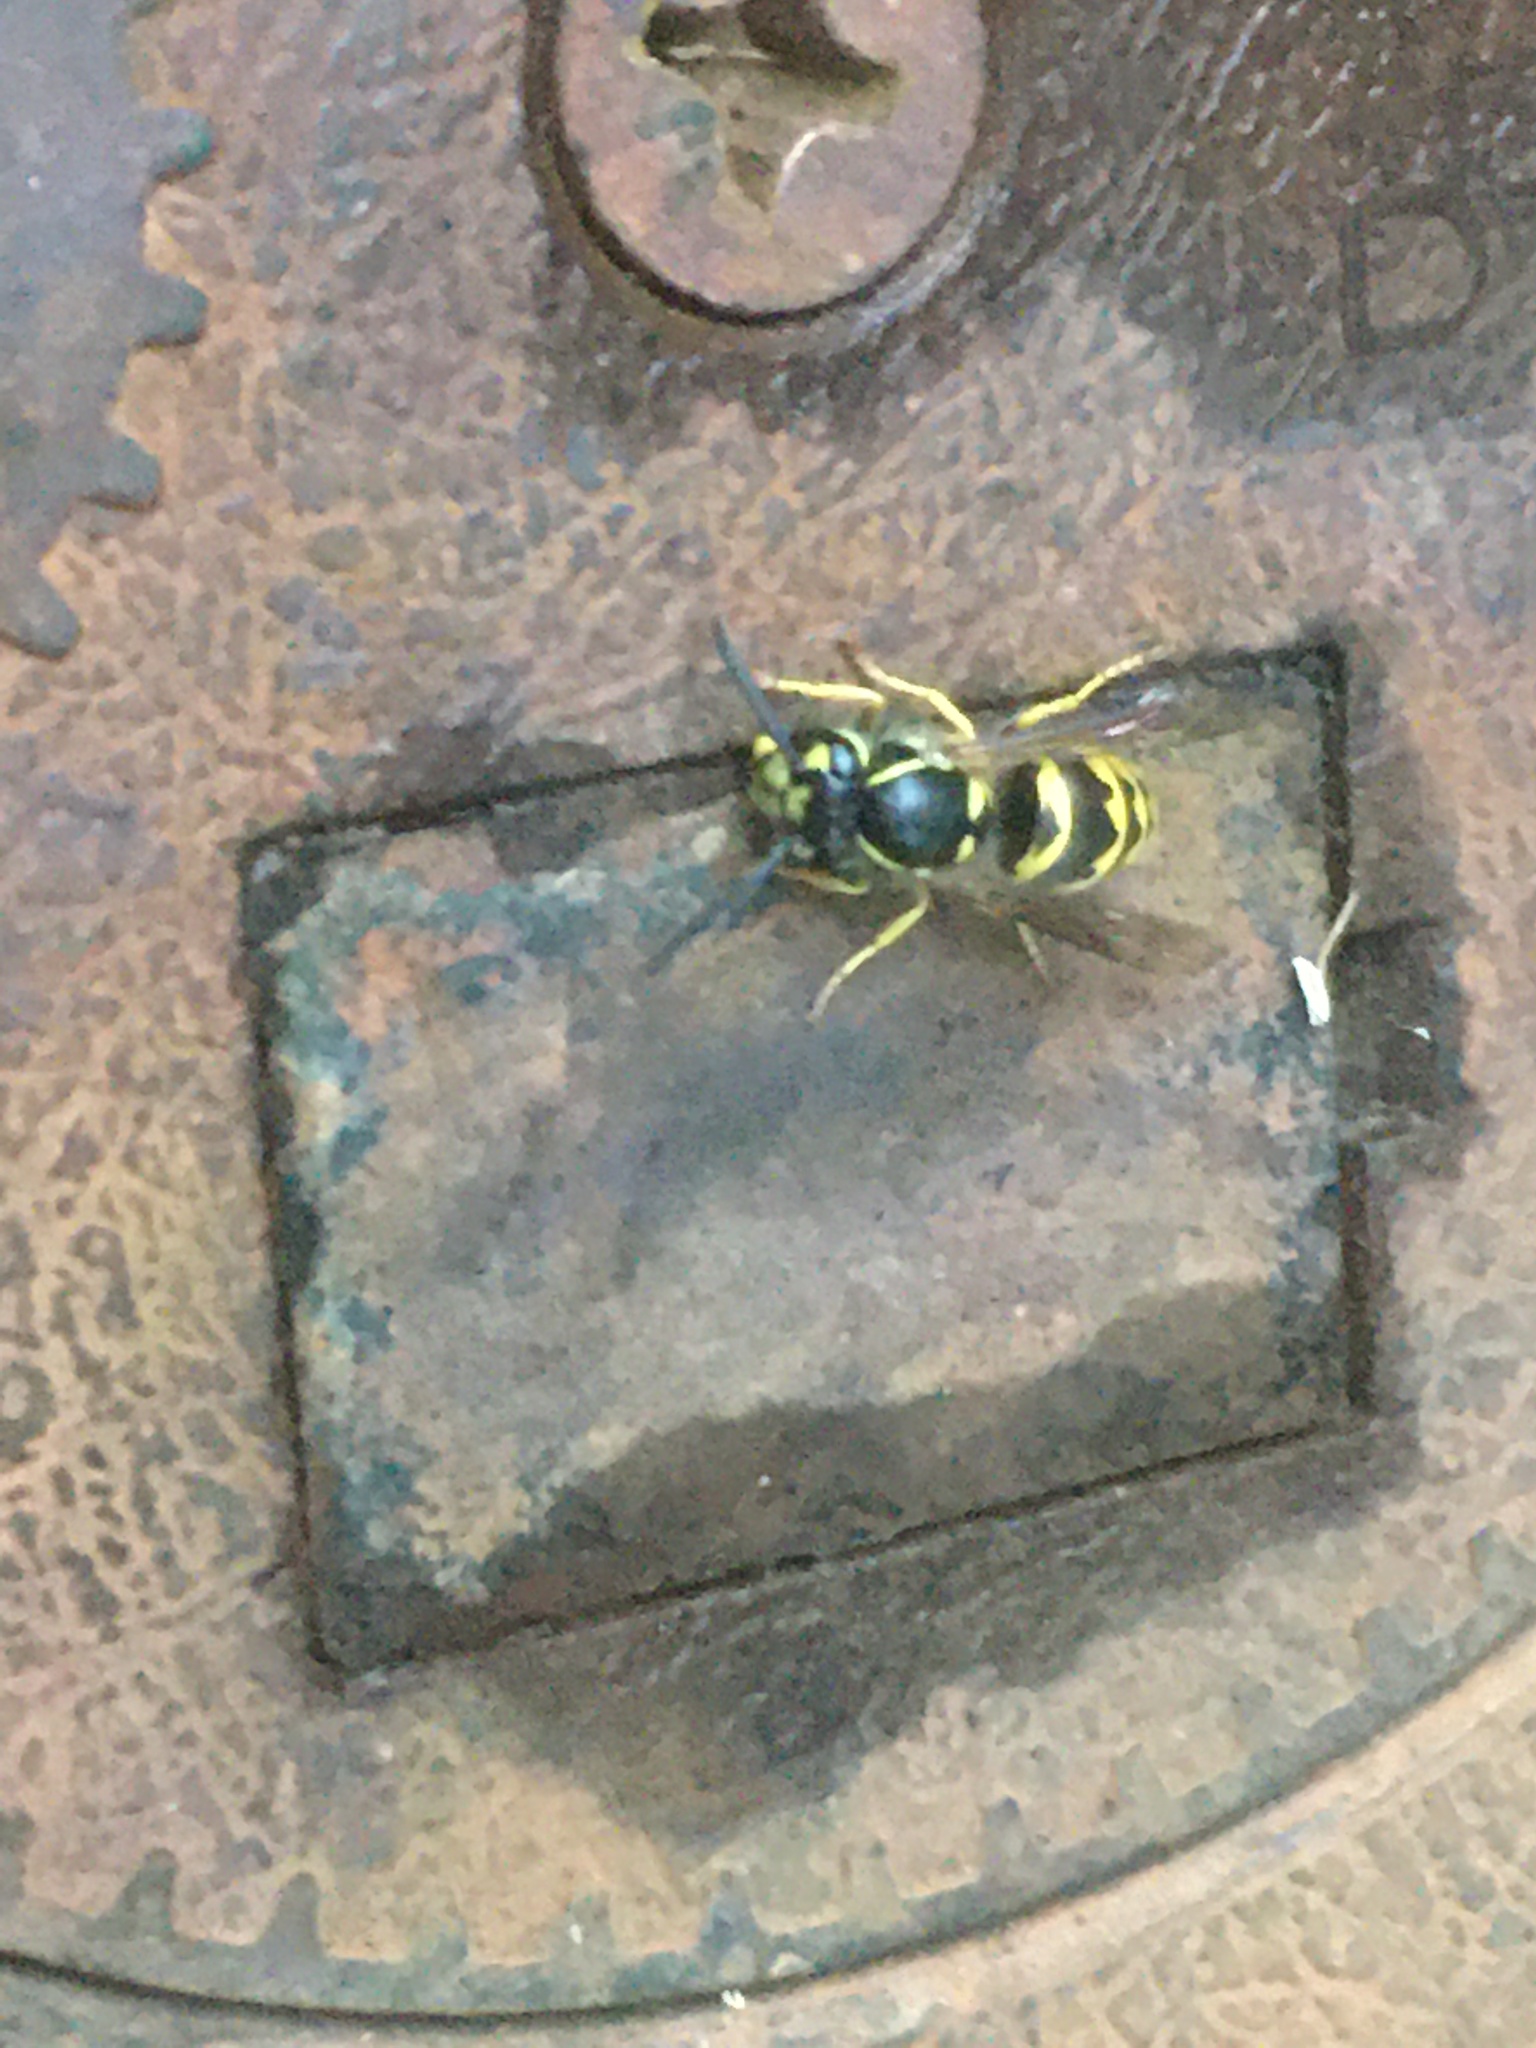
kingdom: Animalia
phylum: Arthropoda
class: Insecta
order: Hymenoptera
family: Vespidae
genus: Vespula
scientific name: Vespula alascensis
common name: Alaska yellowjacket
